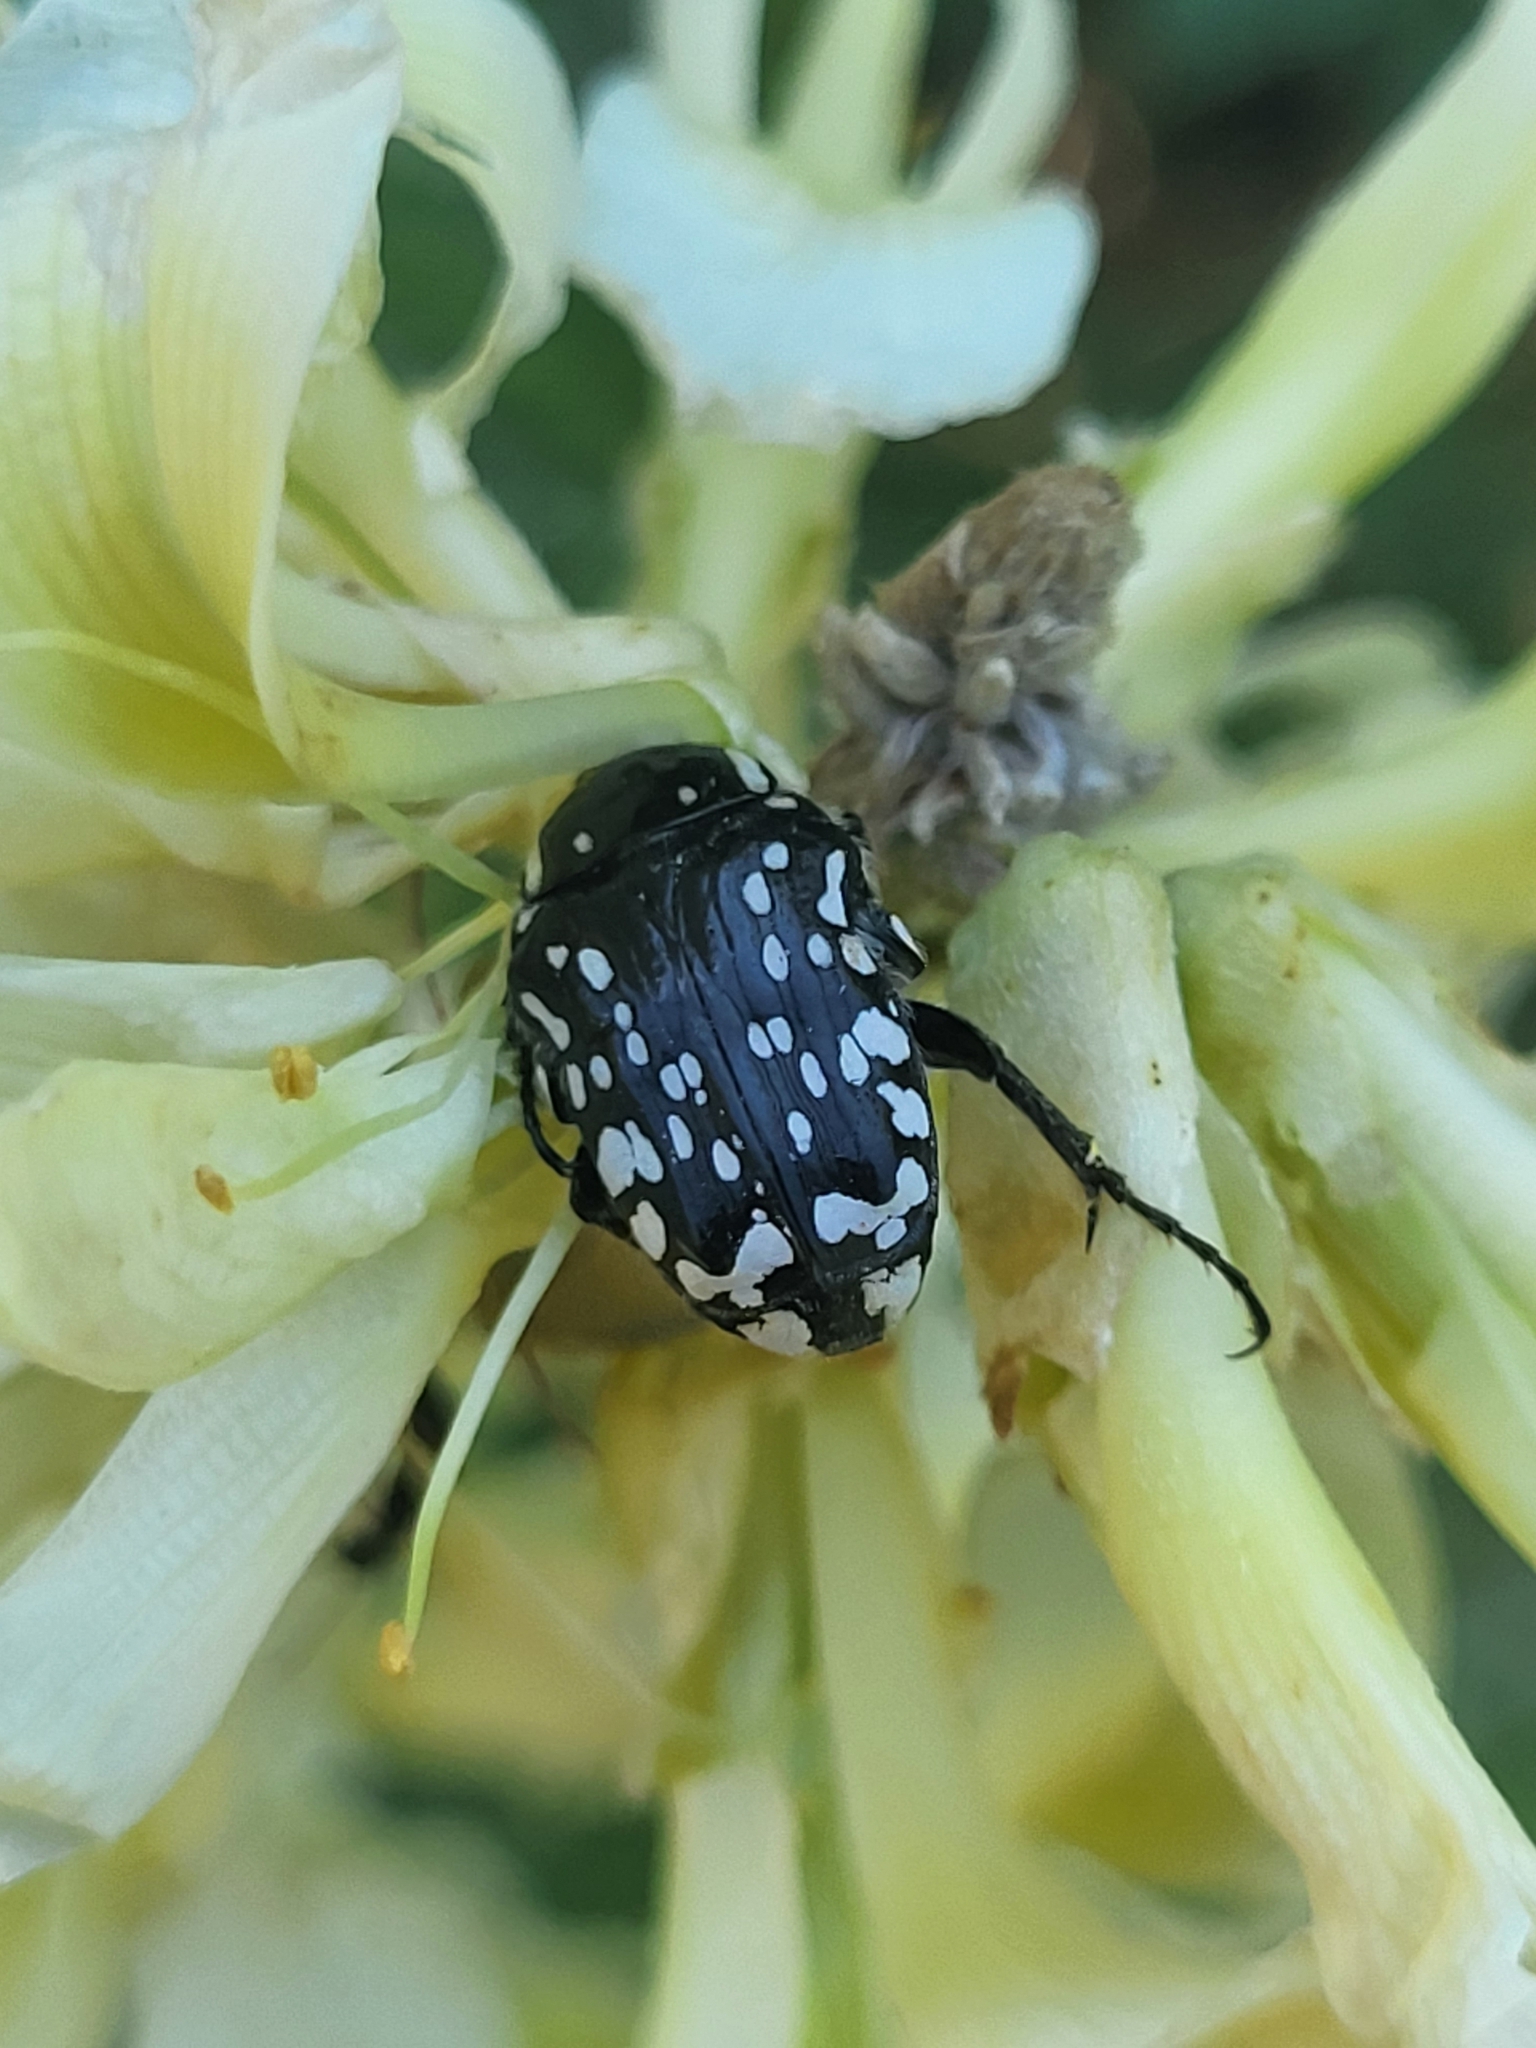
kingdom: Animalia
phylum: Arthropoda
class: Insecta
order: Coleoptera
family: Scarabaeidae
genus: Oxythyrea
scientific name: Oxythyrea cinctella
